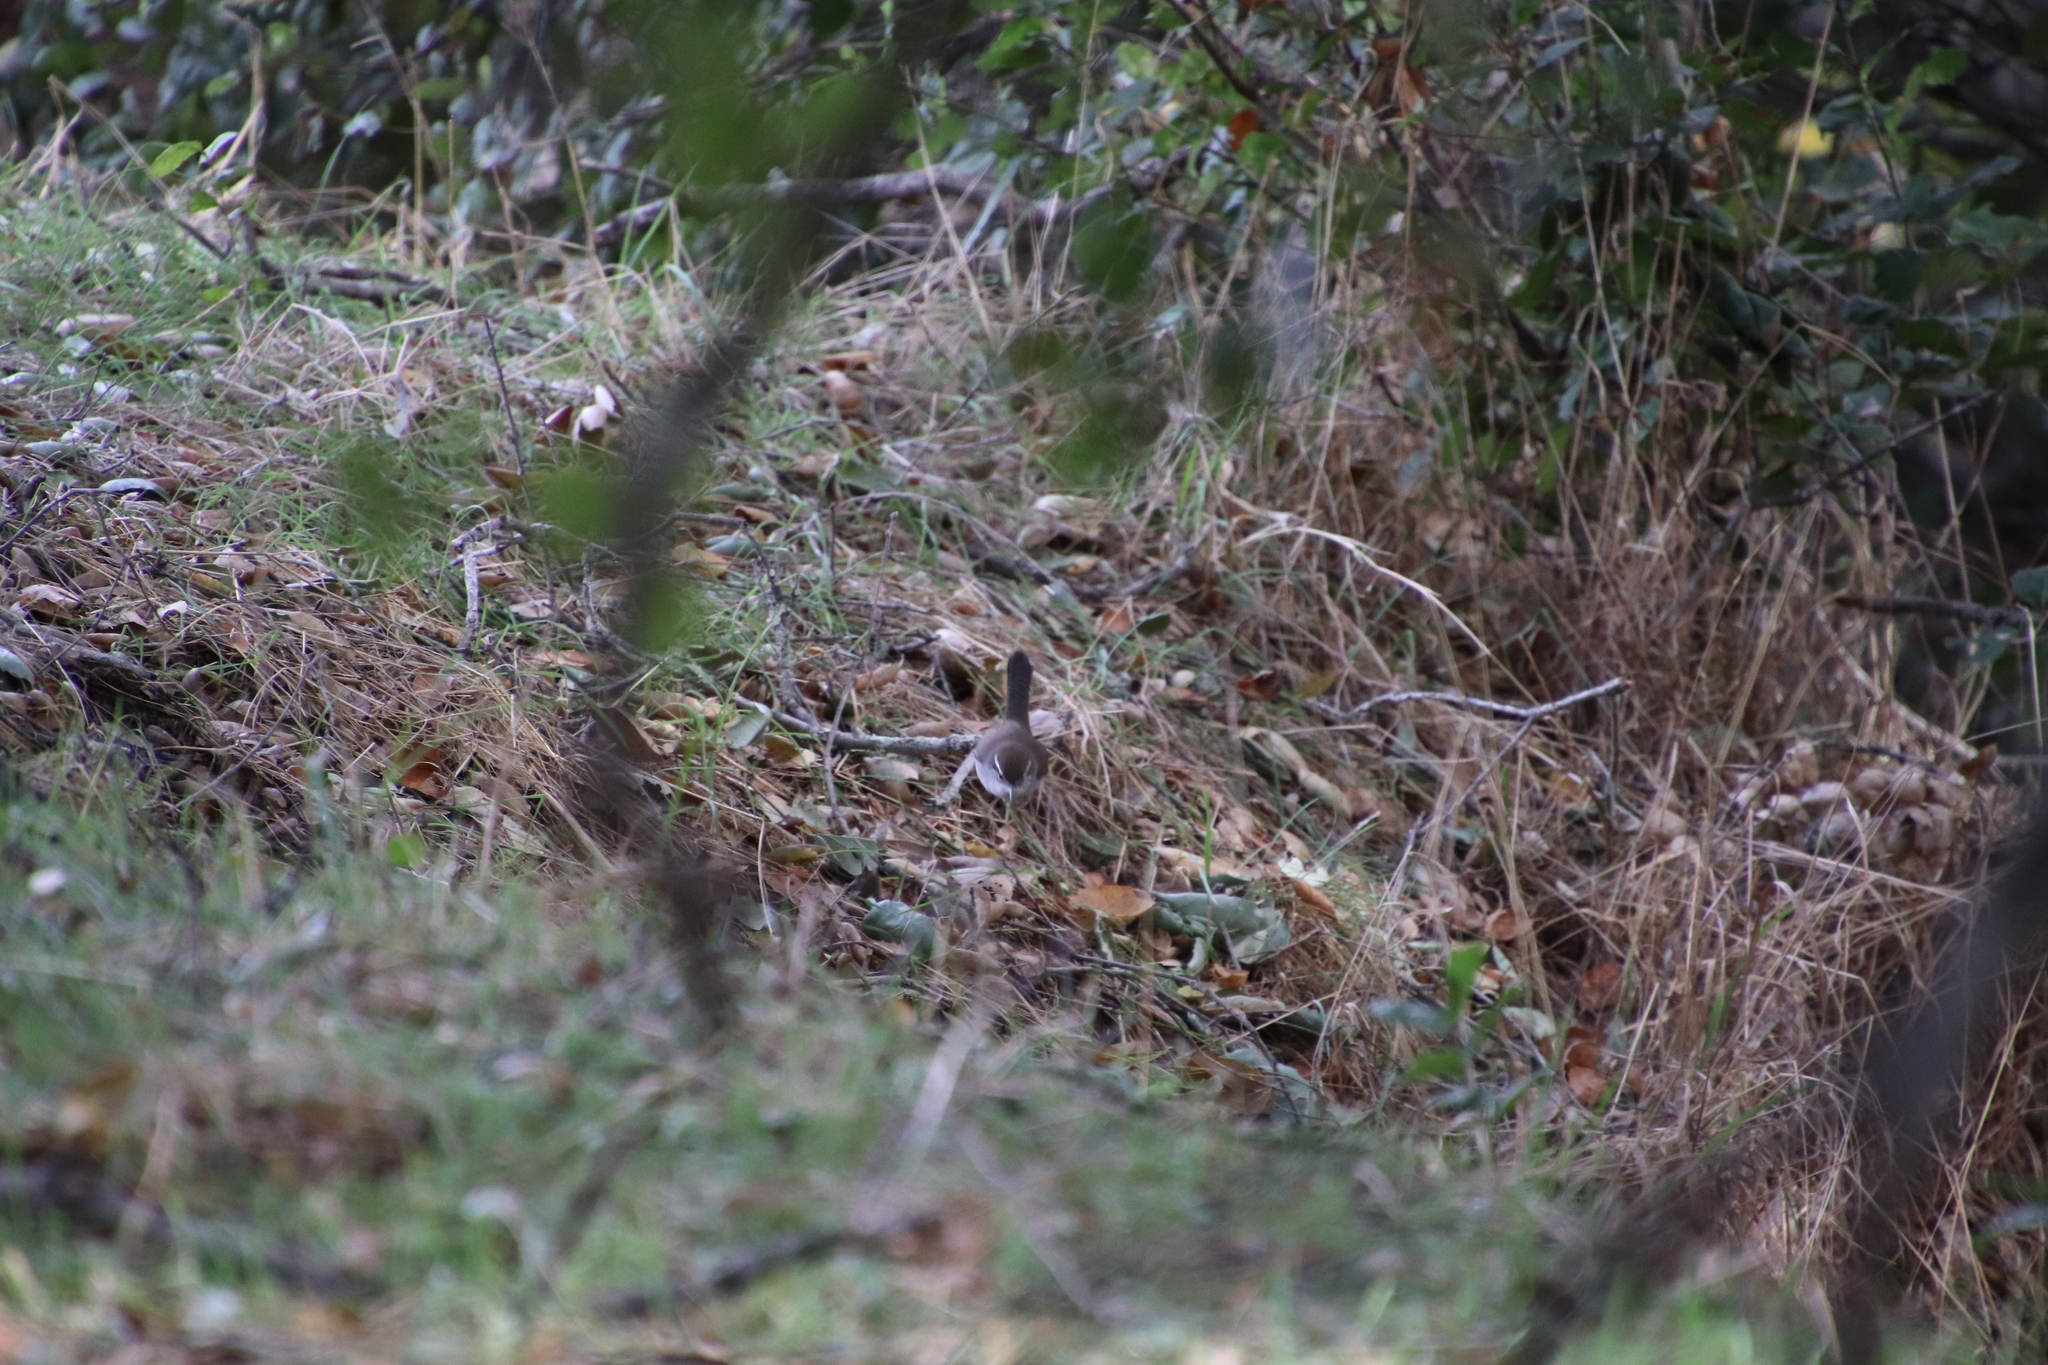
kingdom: Animalia
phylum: Chordata
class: Aves
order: Passeriformes
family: Troglodytidae
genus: Thryomanes
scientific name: Thryomanes bewickii
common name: Bewick's wren
